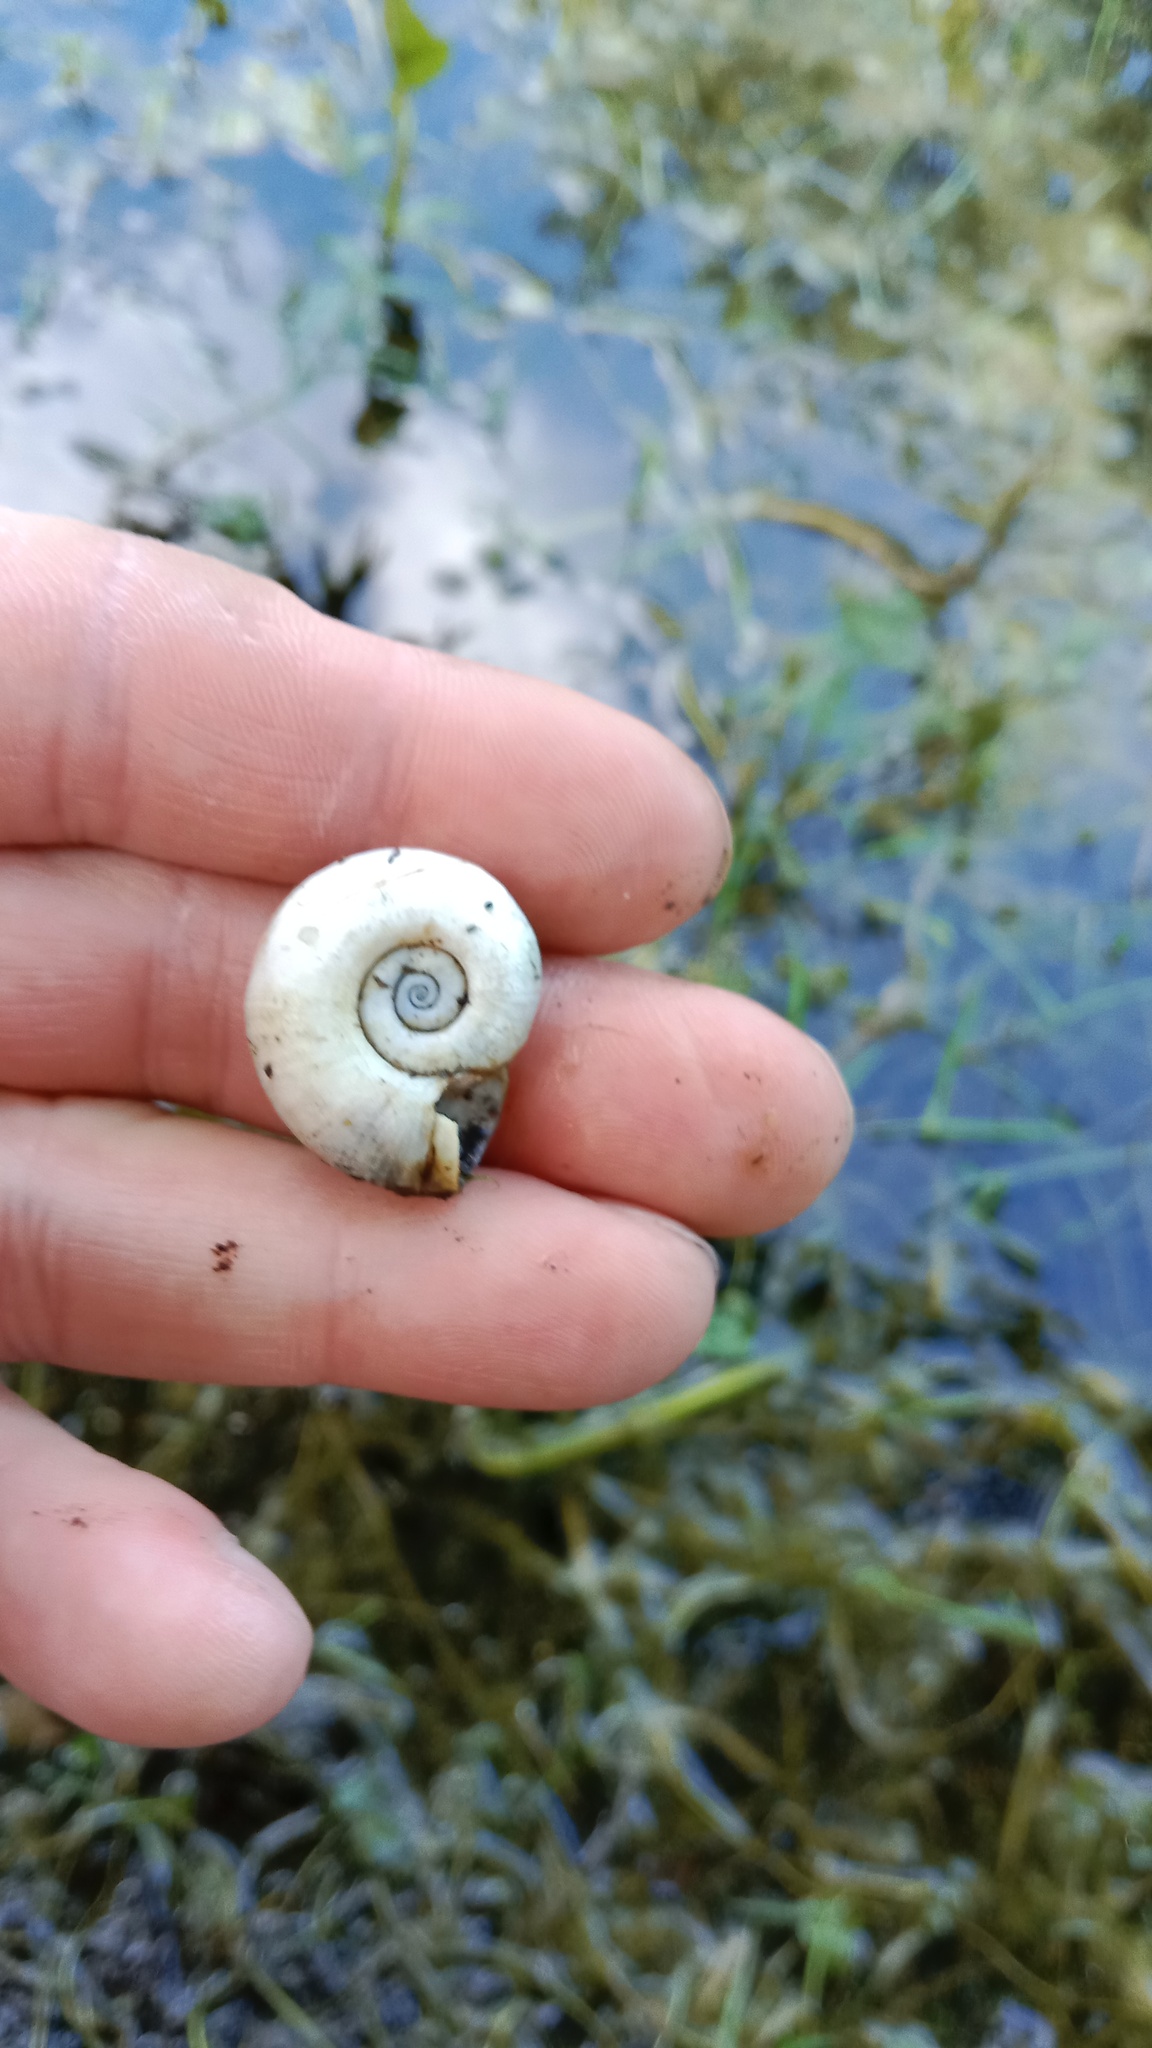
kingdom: Animalia
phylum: Mollusca
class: Gastropoda
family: Planorbidae
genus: Planorbarius
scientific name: Planorbarius corneus
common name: Great ramshorn
